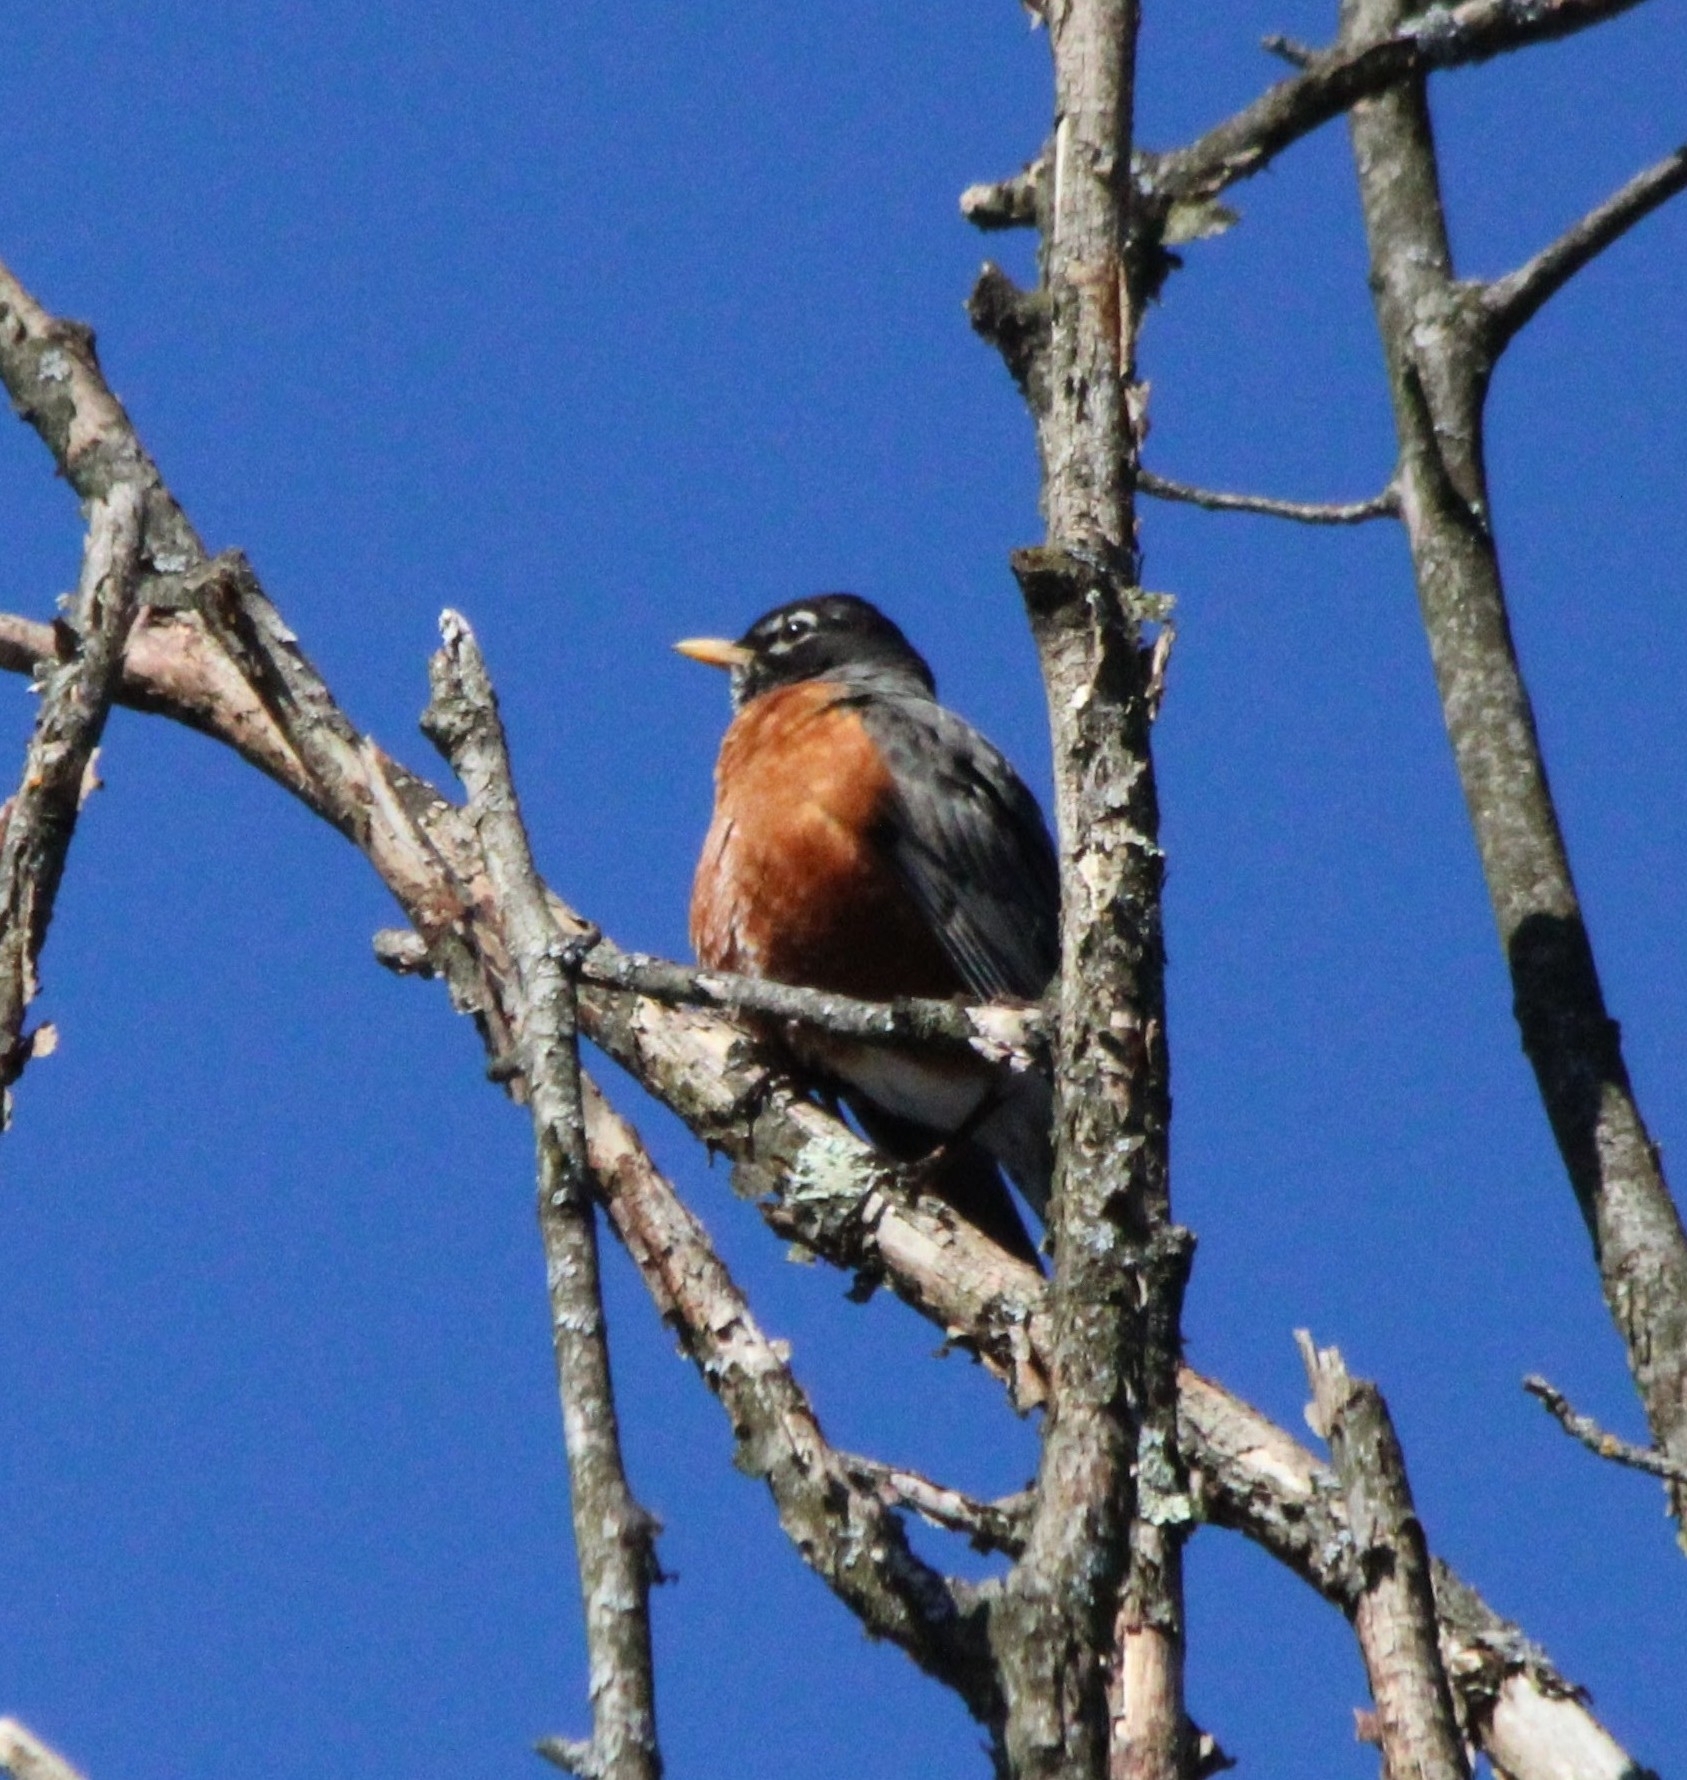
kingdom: Animalia
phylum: Chordata
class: Aves
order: Passeriformes
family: Turdidae
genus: Turdus
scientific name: Turdus migratorius
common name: American robin
